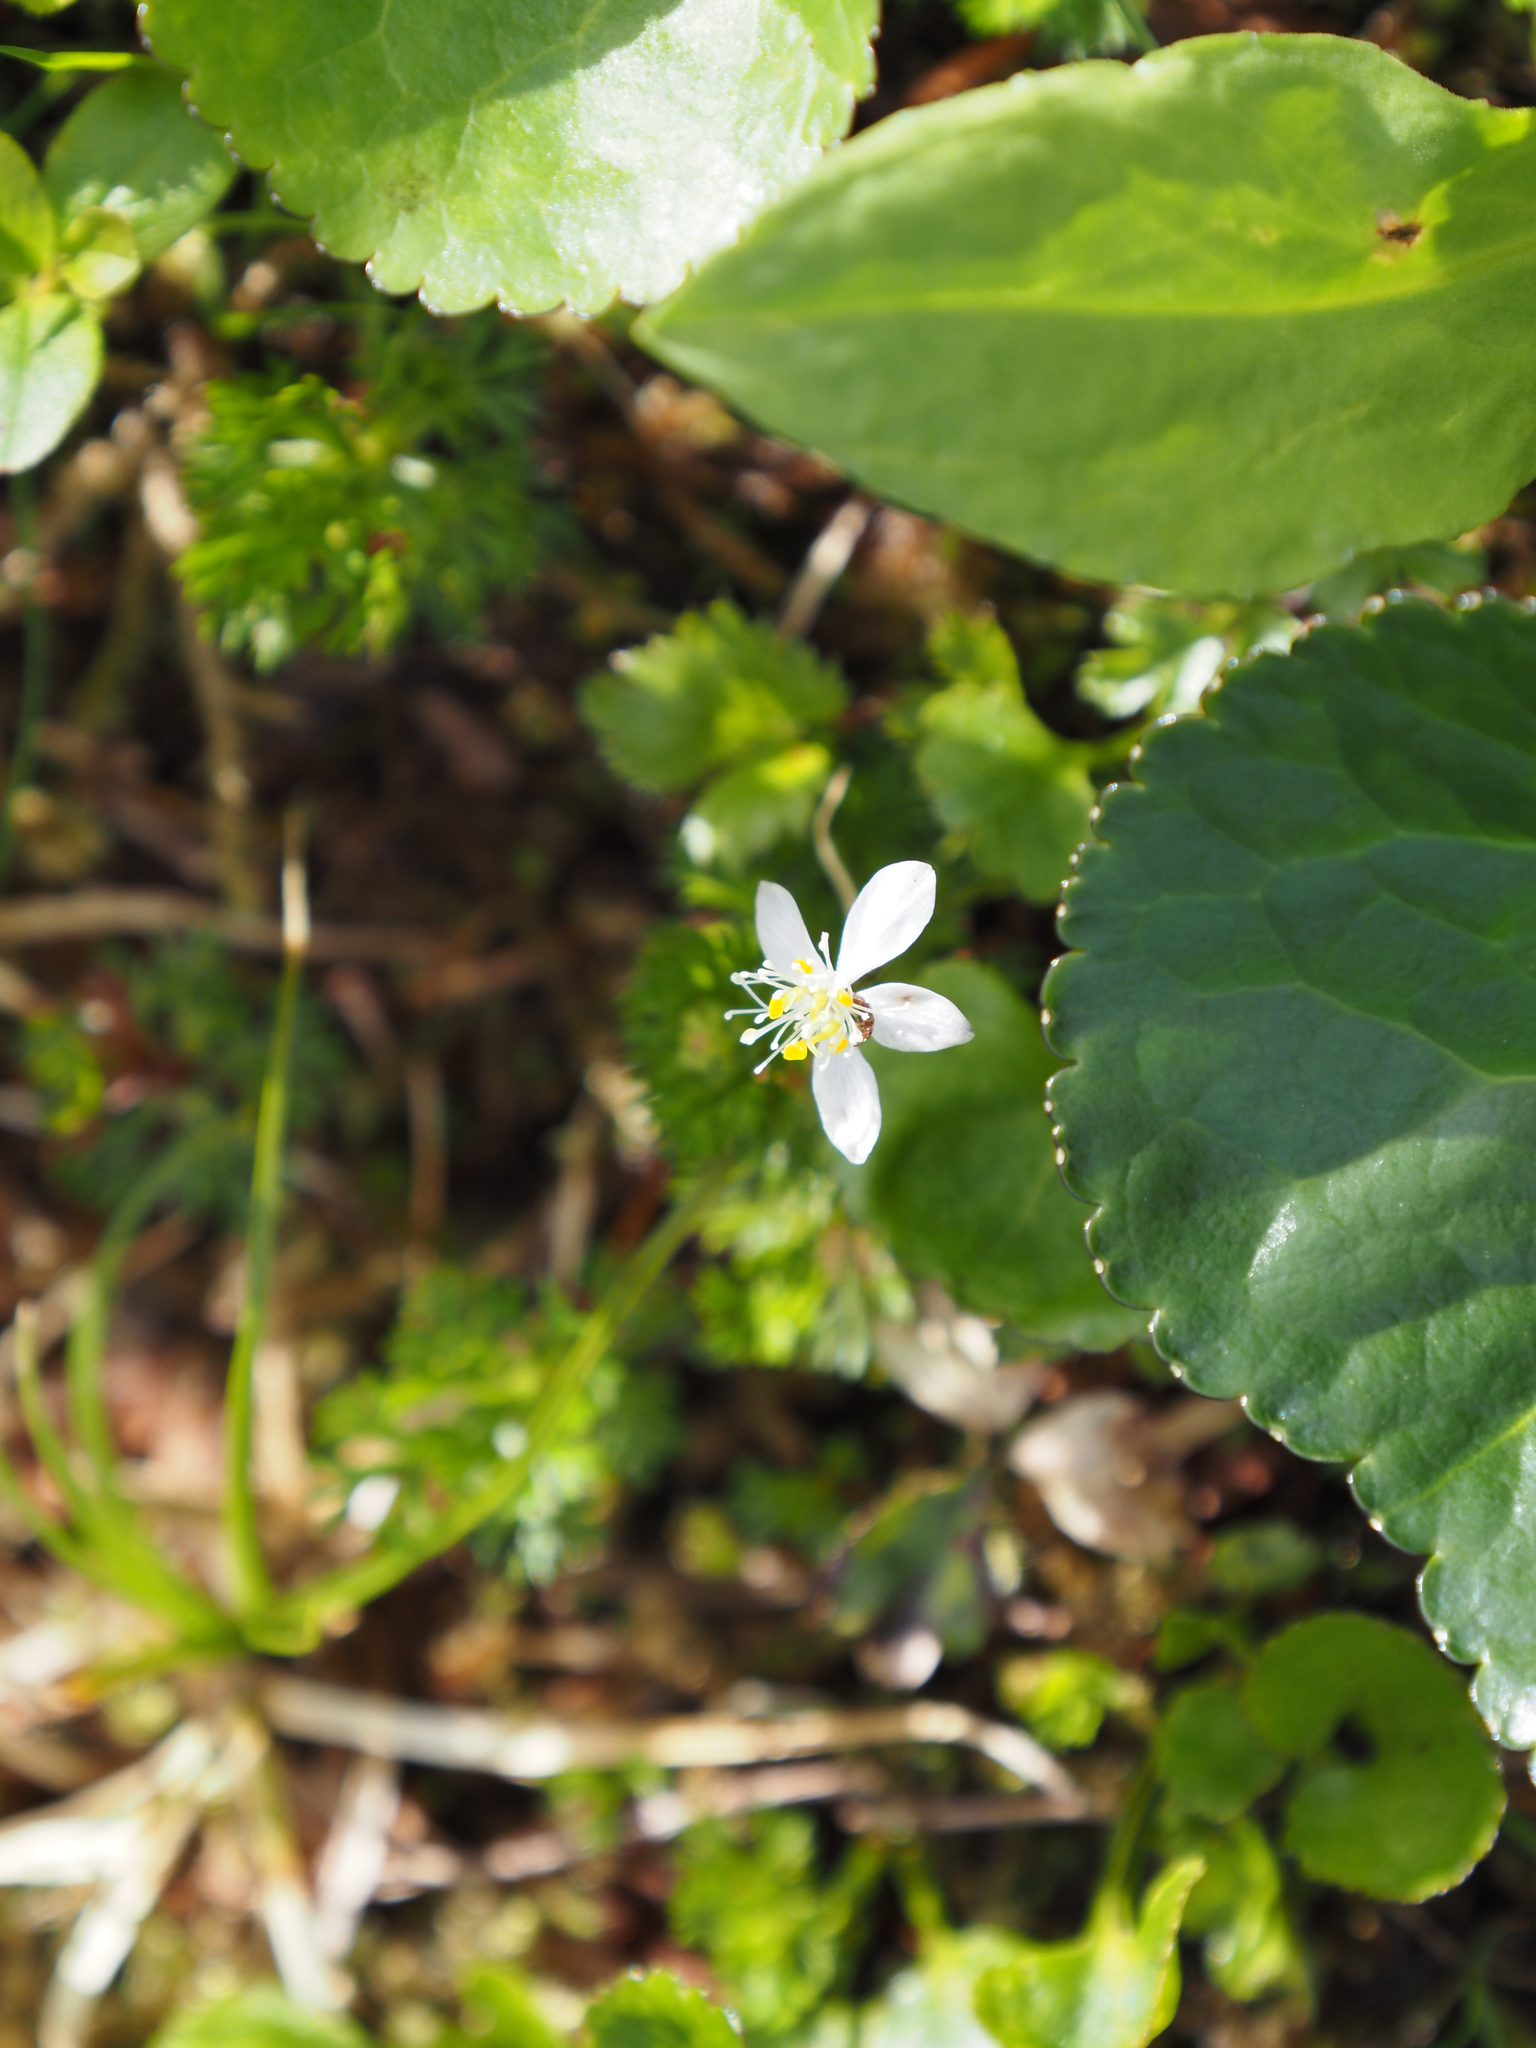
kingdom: Plantae
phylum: Tracheophyta
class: Magnoliopsida
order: Ranunculales
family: Ranunculaceae
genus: Coptis
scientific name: Coptis trifolia
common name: Canker-root
